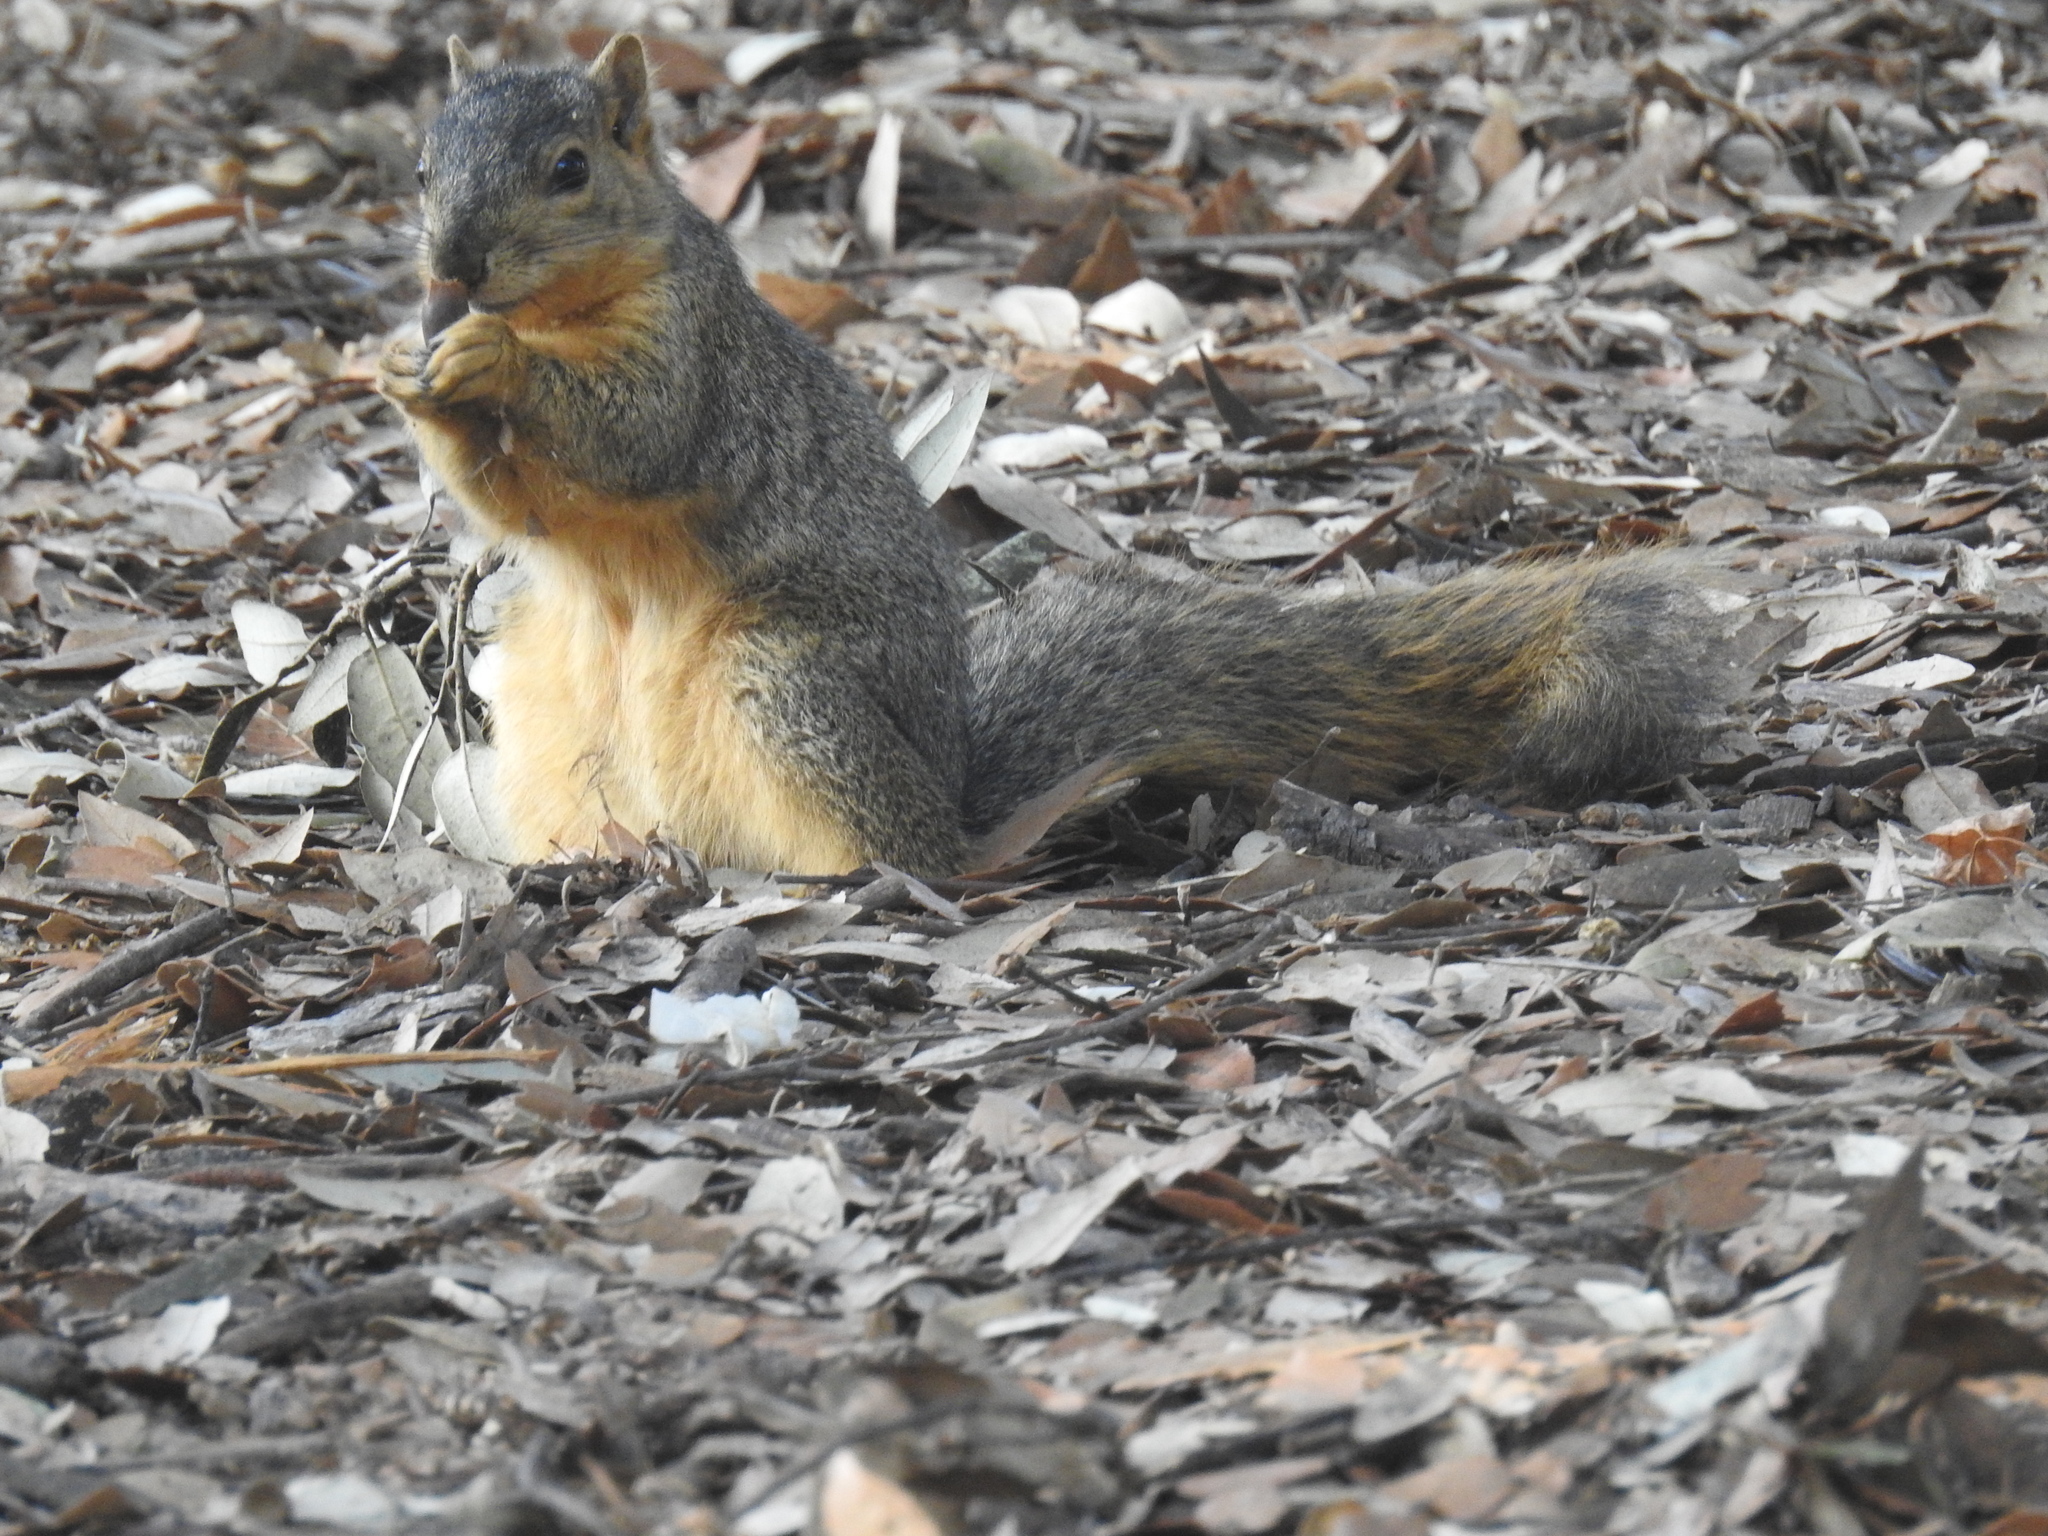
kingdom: Animalia
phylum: Chordata
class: Mammalia
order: Rodentia
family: Sciuridae
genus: Sciurus
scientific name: Sciurus niger
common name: Fox squirrel
